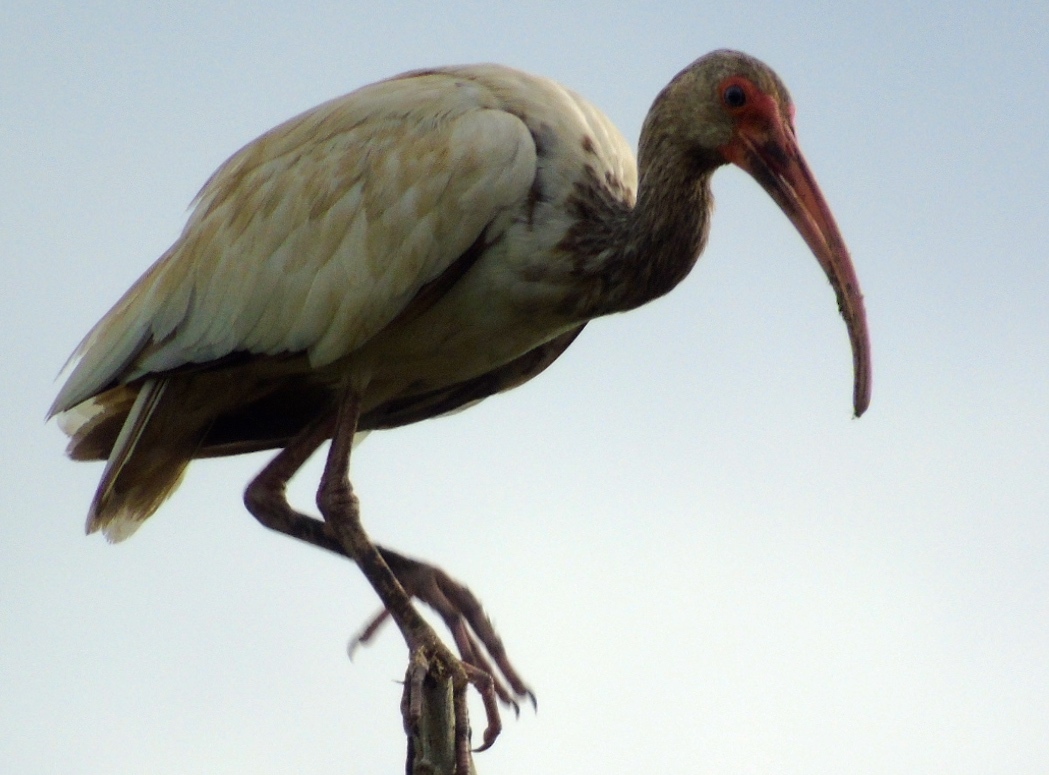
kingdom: Animalia
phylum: Chordata
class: Aves
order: Pelecaniformes
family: Threskiornithidae
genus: Eudocimus
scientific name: Eudocimus albus
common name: White ibis
